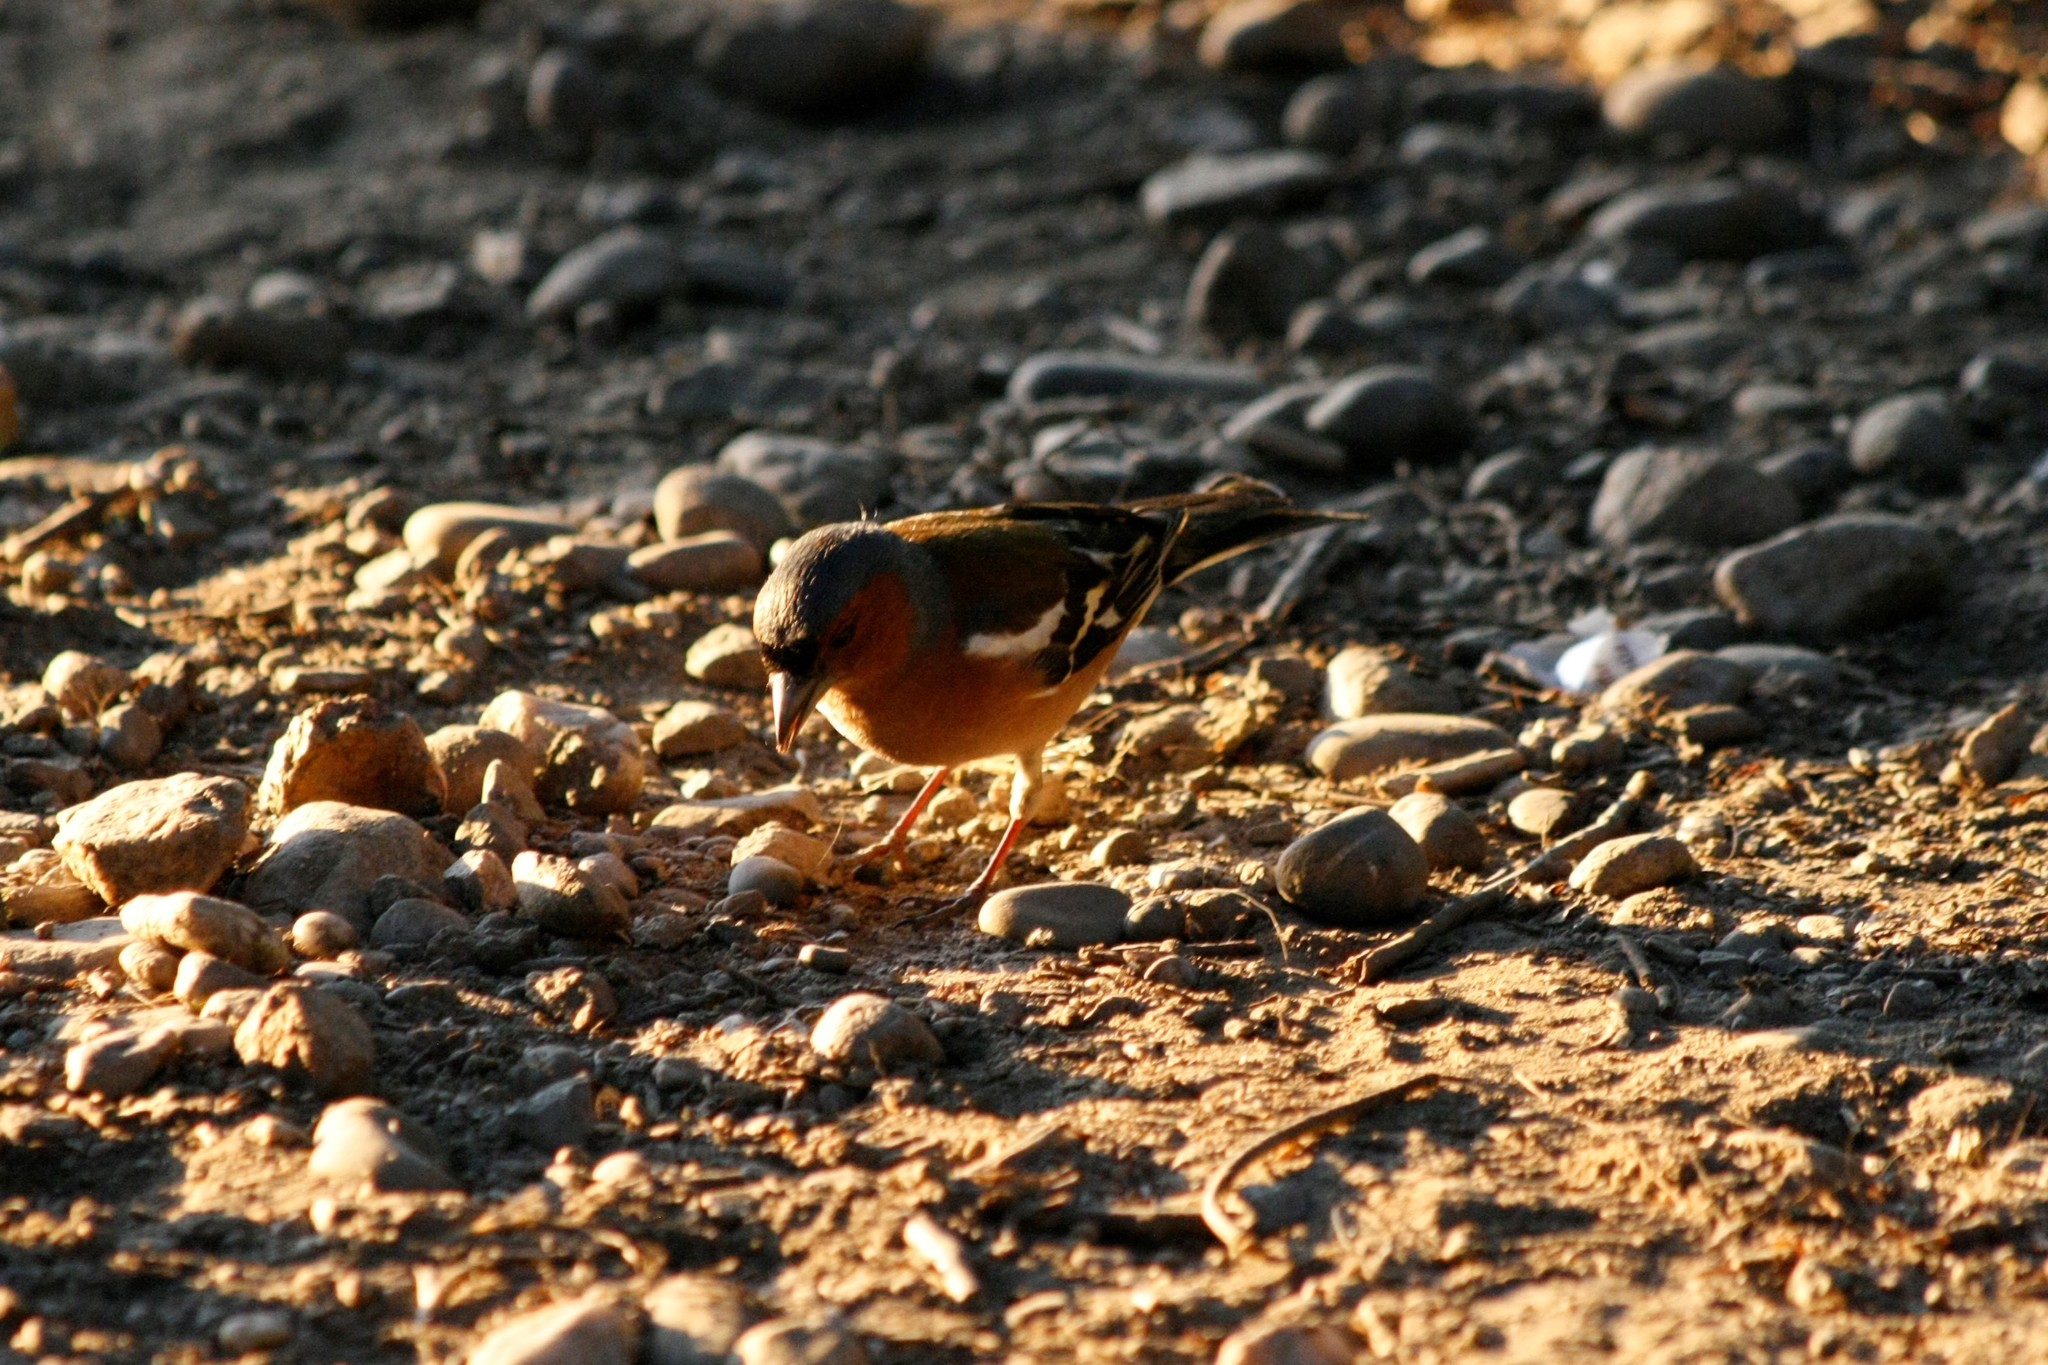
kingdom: Animalia
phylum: Chordata
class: Aves
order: Passeriformes
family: Fringillidae
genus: Fringilla
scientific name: Fringilla coelebs
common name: Common chaffinch
